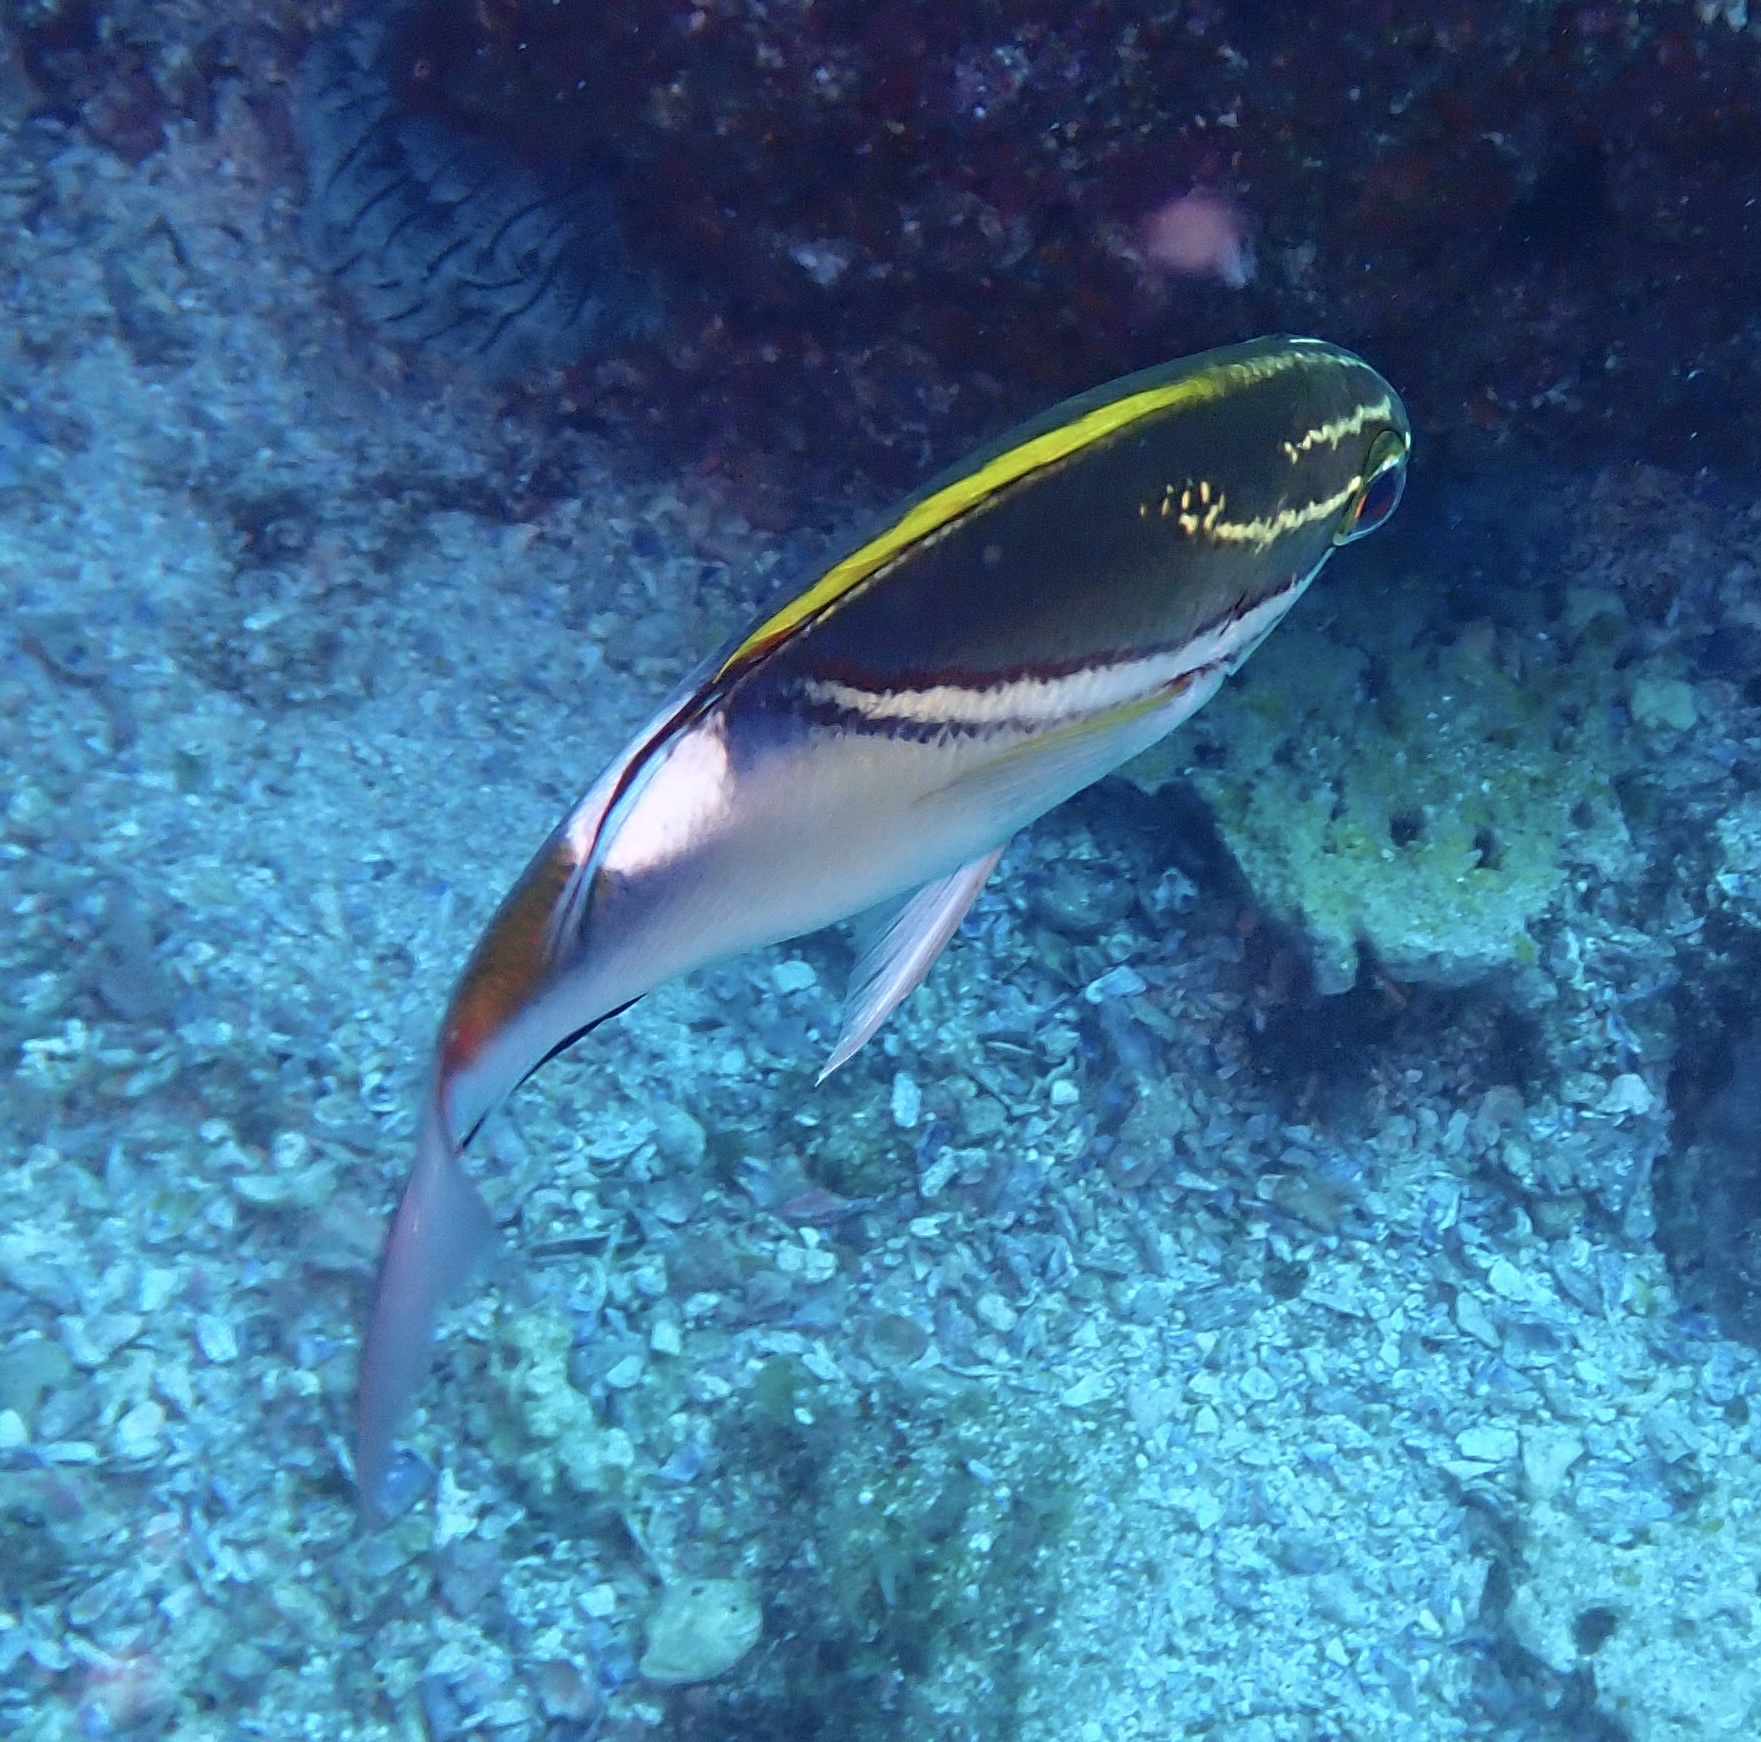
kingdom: Animalia
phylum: Chordata
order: Perciformes
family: Nemipteridae
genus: Scolopsis
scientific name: Scolopsis bilineata
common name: Two-lined monocle bream
